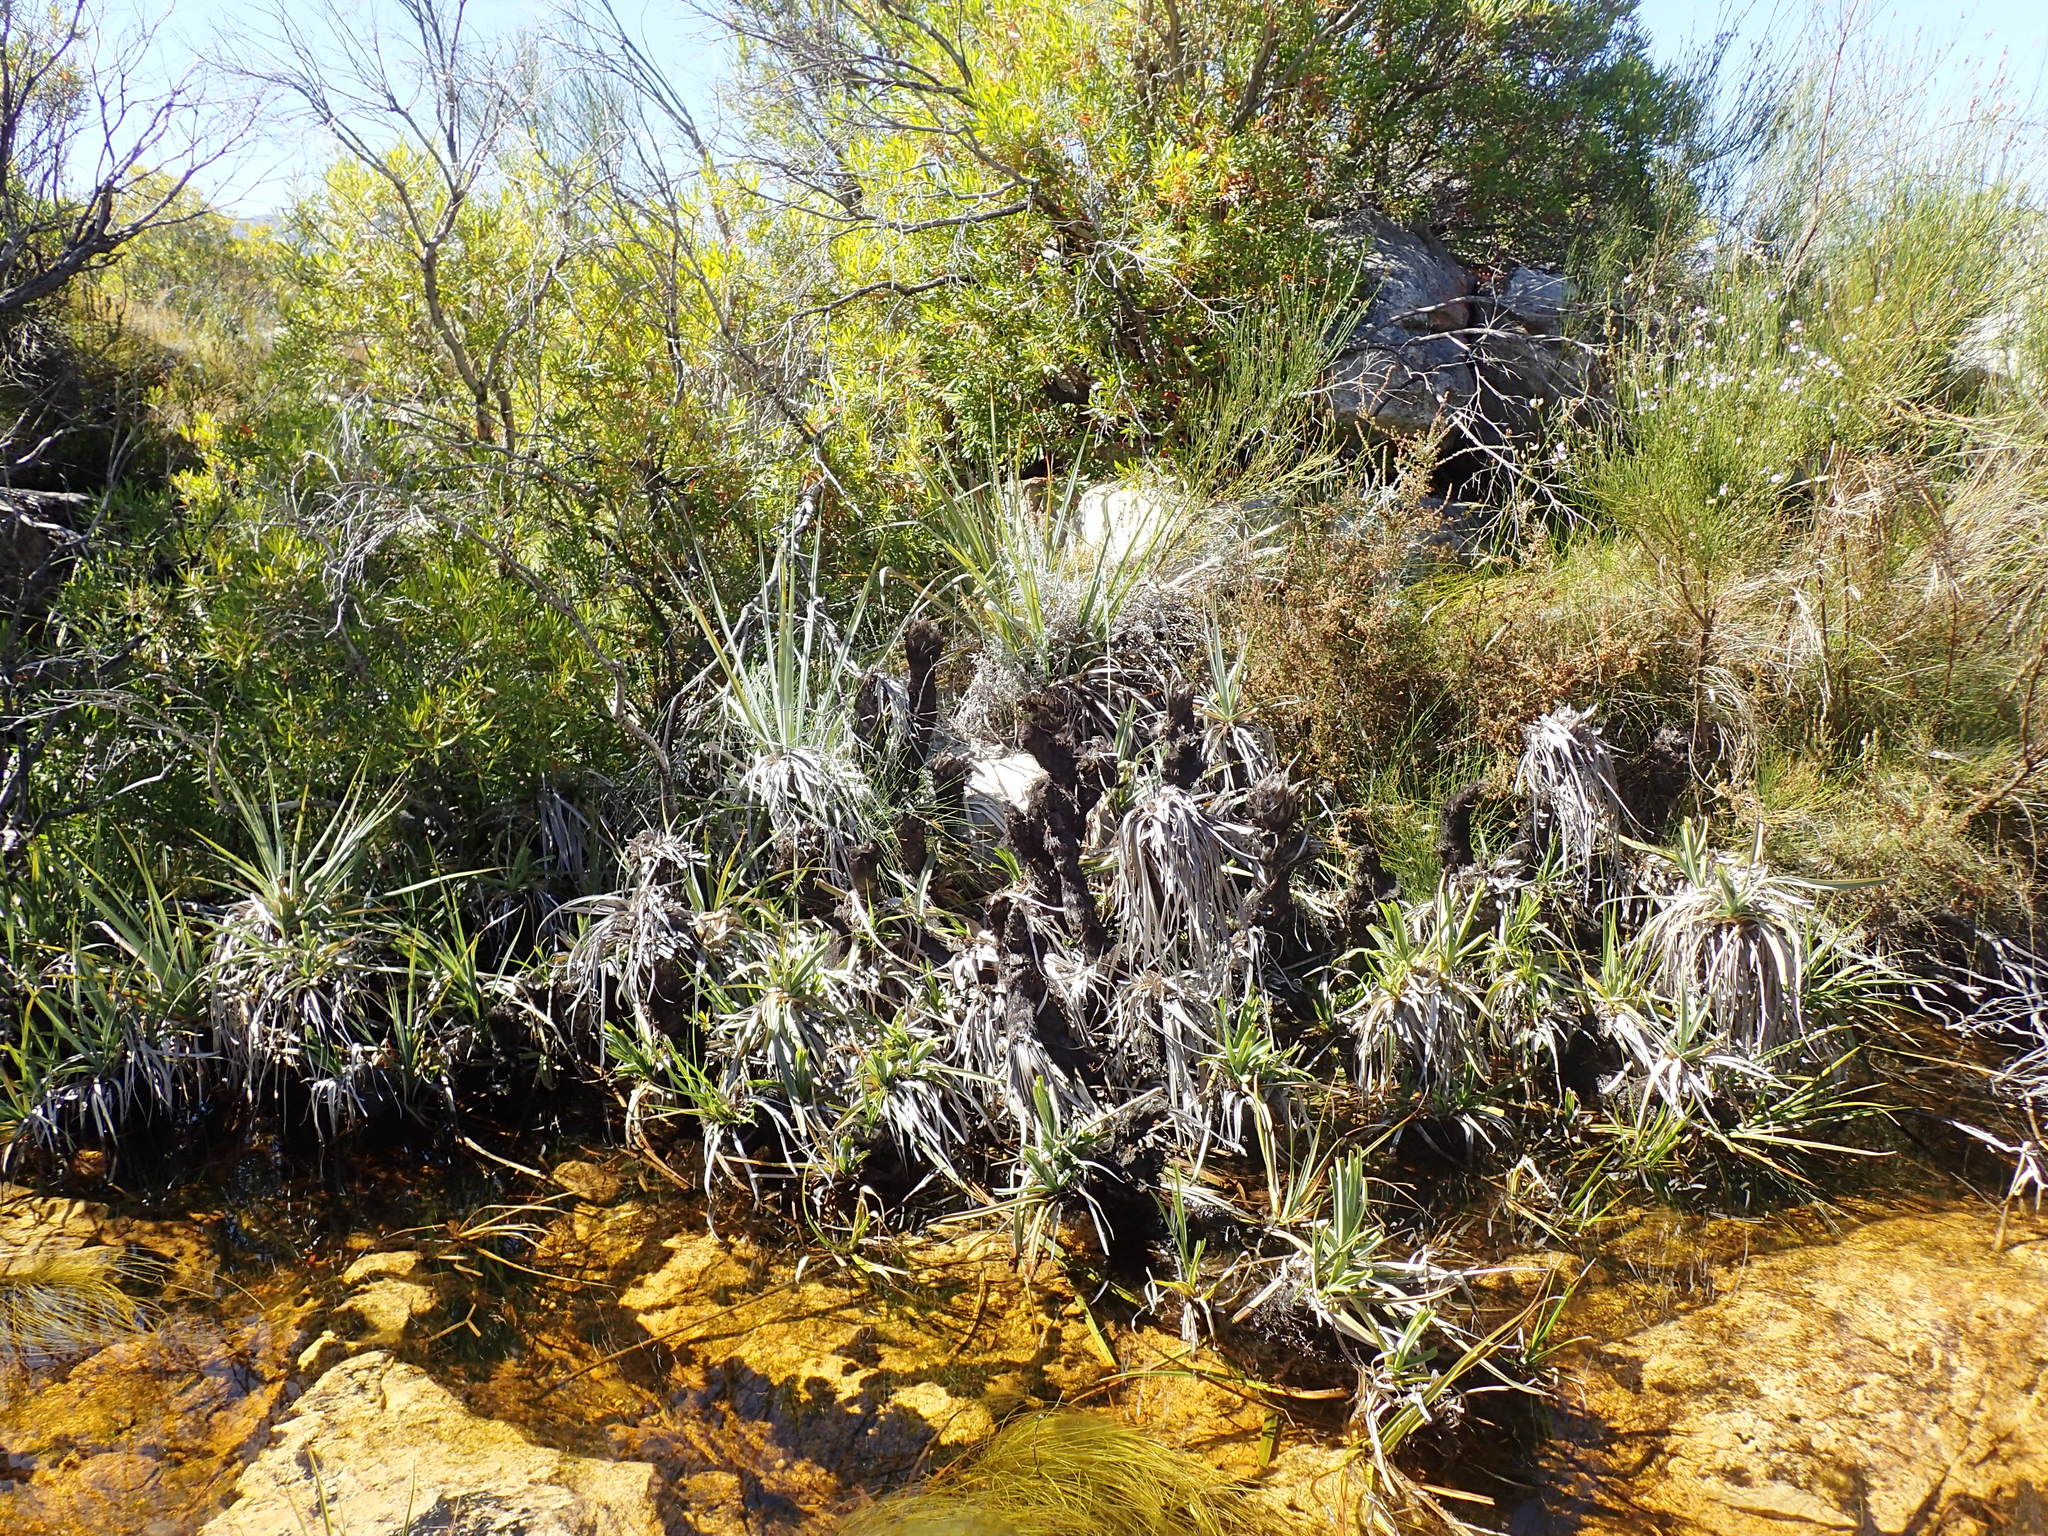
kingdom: Plantae
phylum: Tracheophyta
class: Liliopsida
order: Poales
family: Thurniaceae
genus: Prionium
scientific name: Prionium serratum
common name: Palmiet
